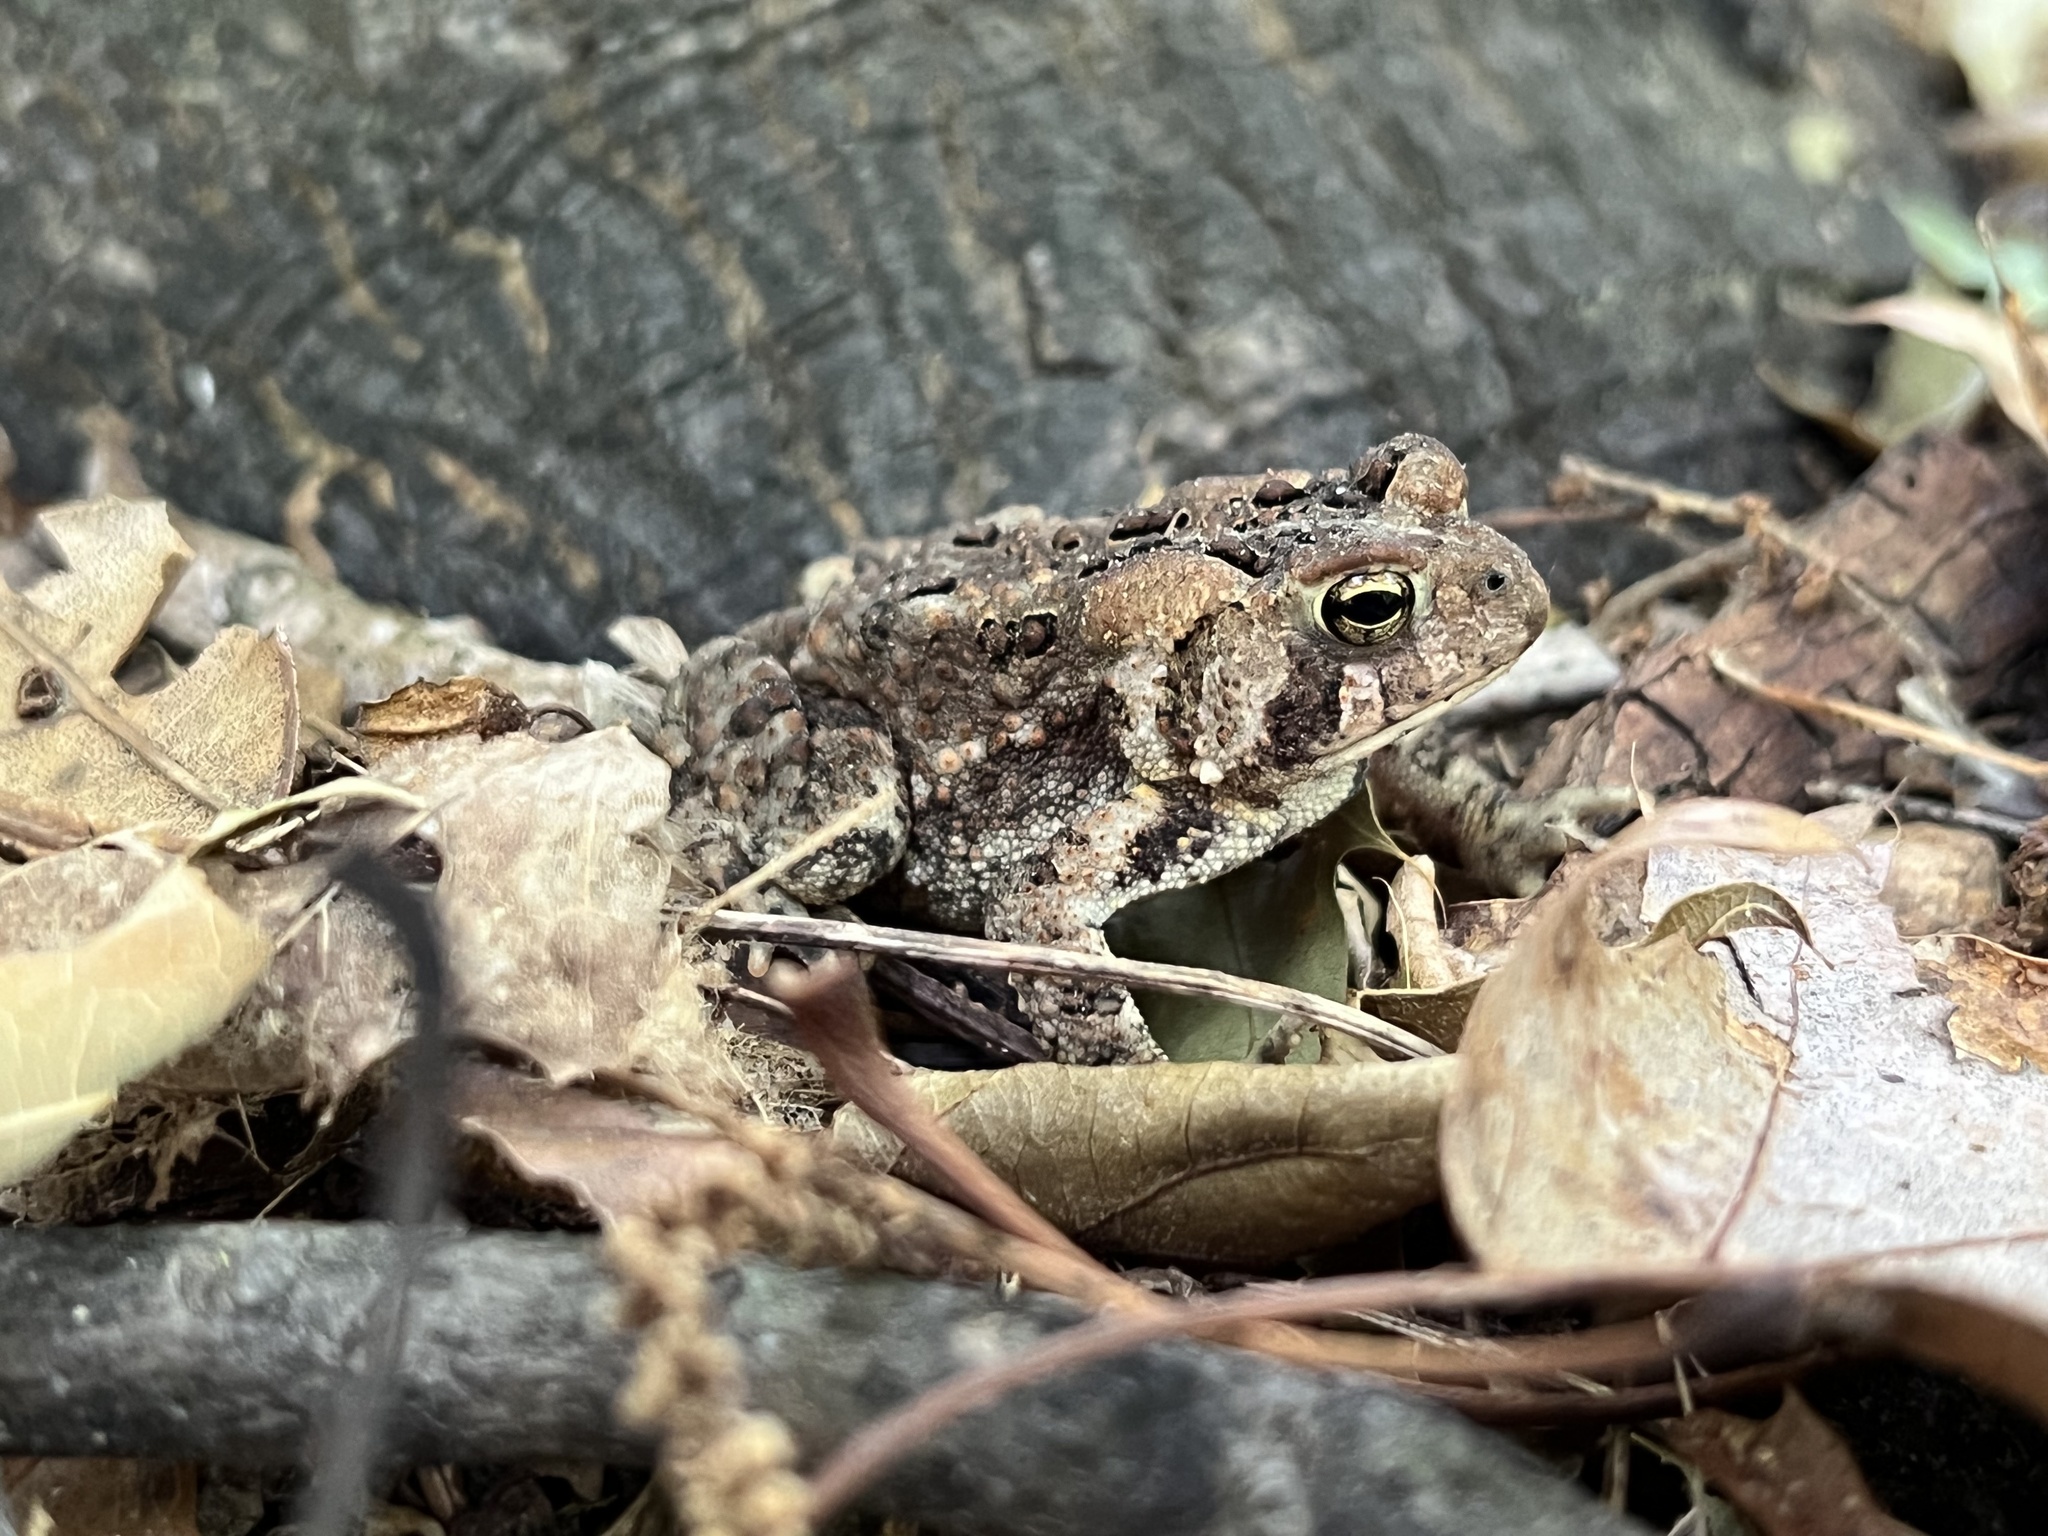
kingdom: Animalia
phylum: Chordata
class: Amphibia
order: Anura
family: Bufonidae
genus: Anaxyrus
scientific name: Anaxyrus americanus
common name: American toad
